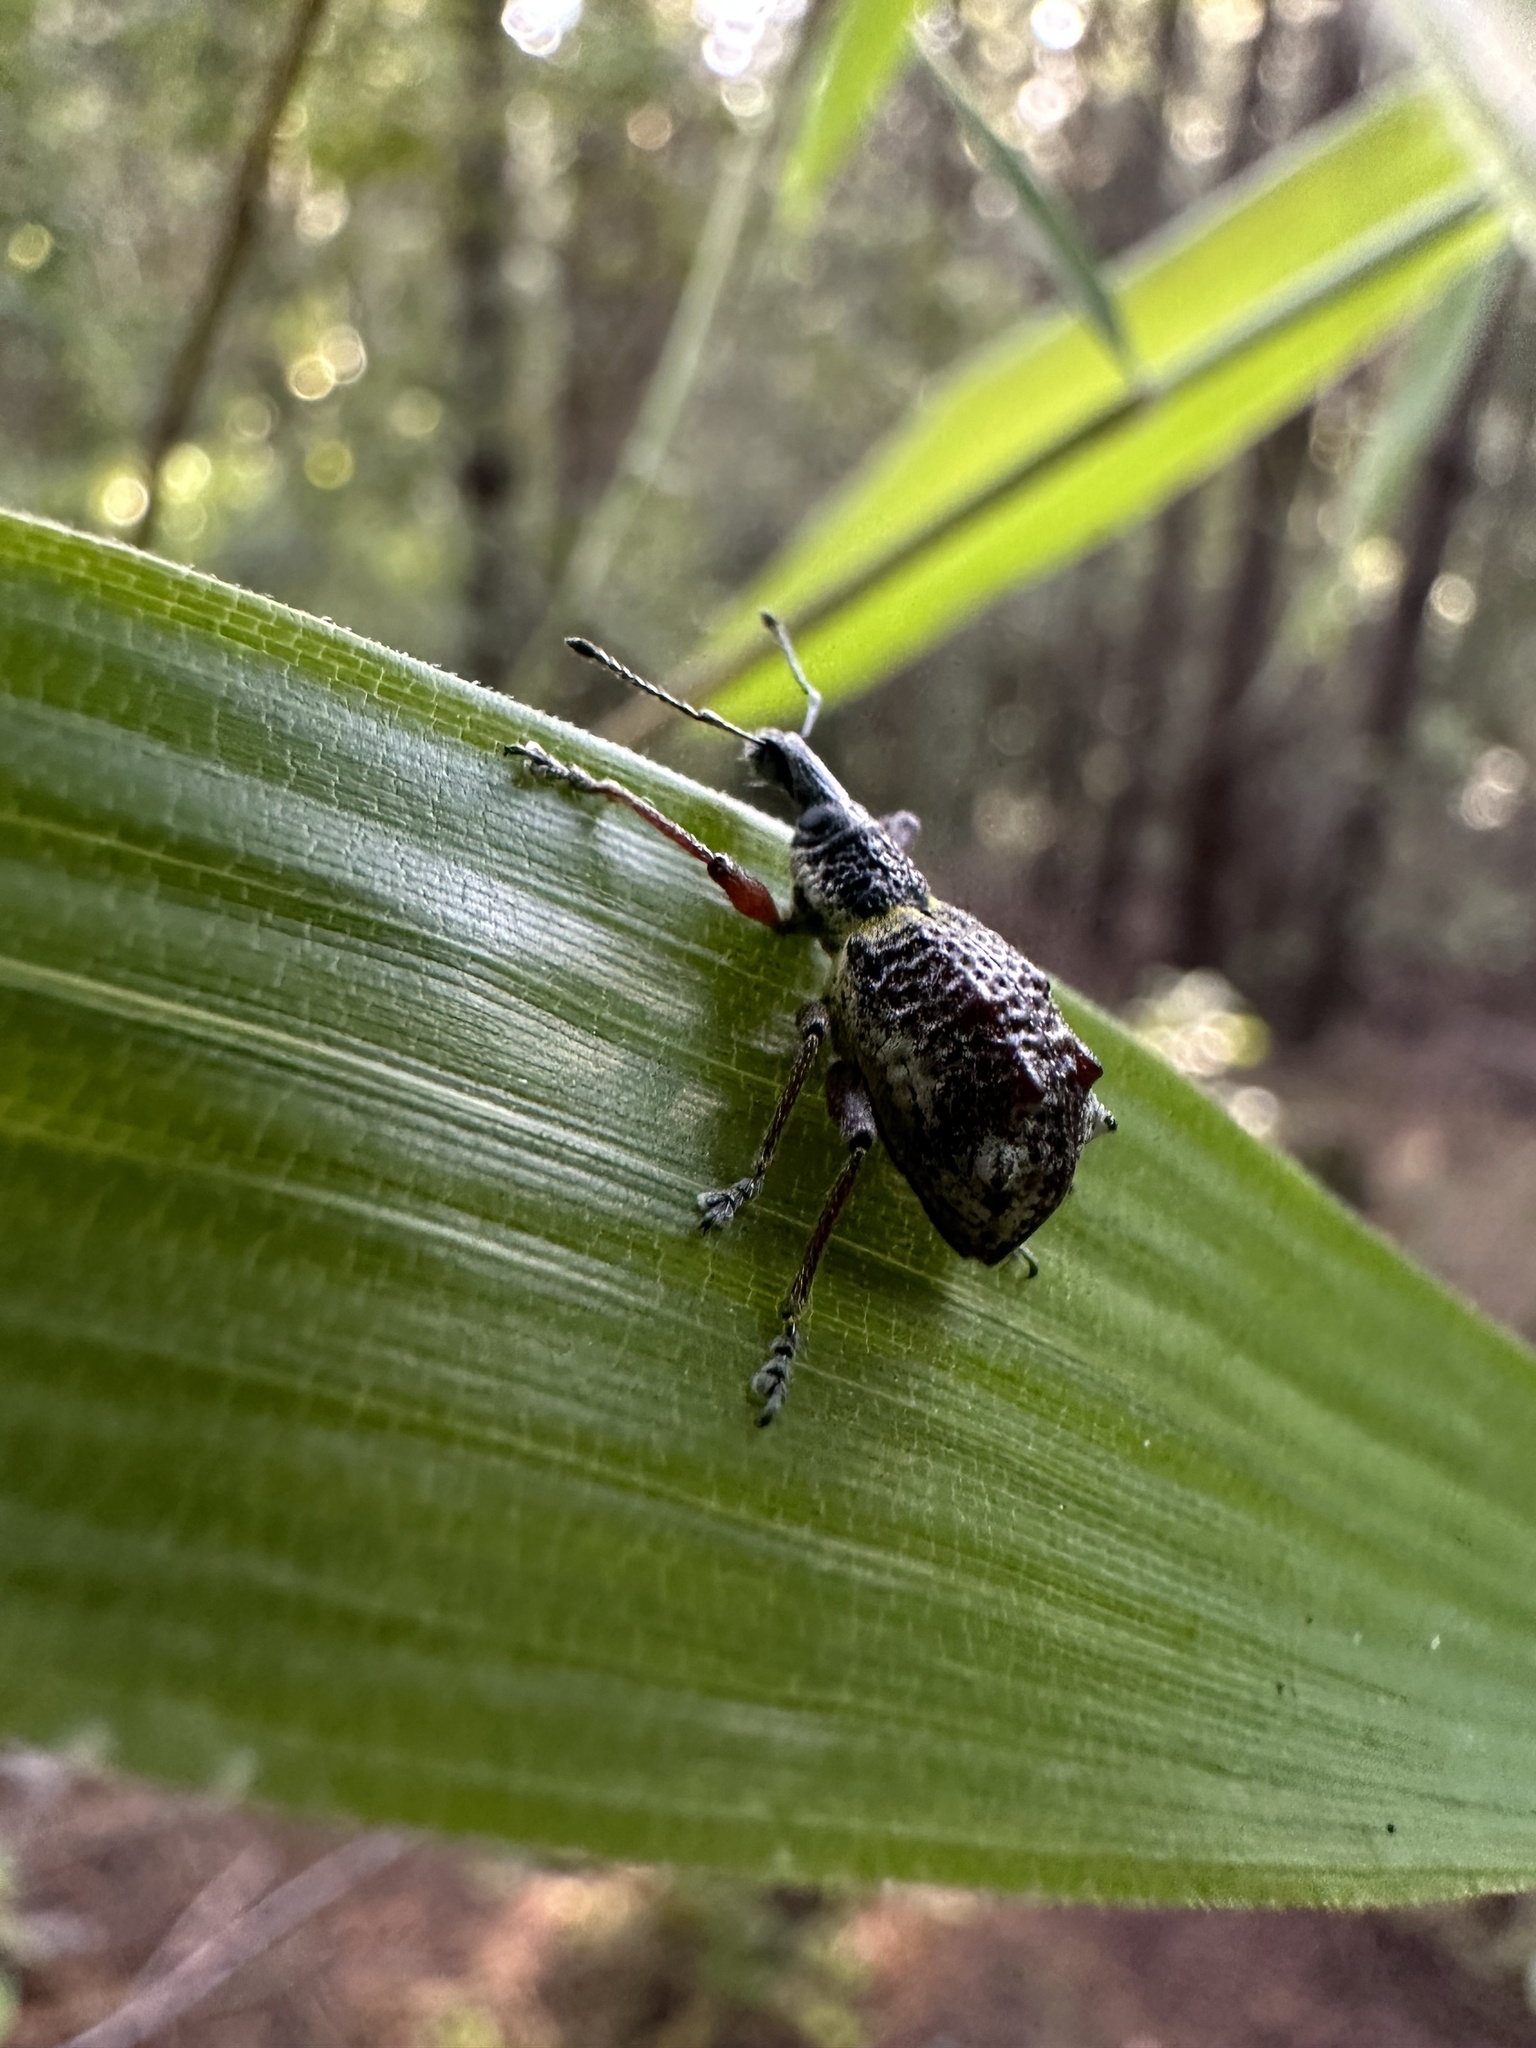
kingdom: Animalia
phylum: Arthropoda
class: Insecta
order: Coleoptera
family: Curculionidae
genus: Hybreoleptops
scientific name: Hybreoleptops tuberculifer
